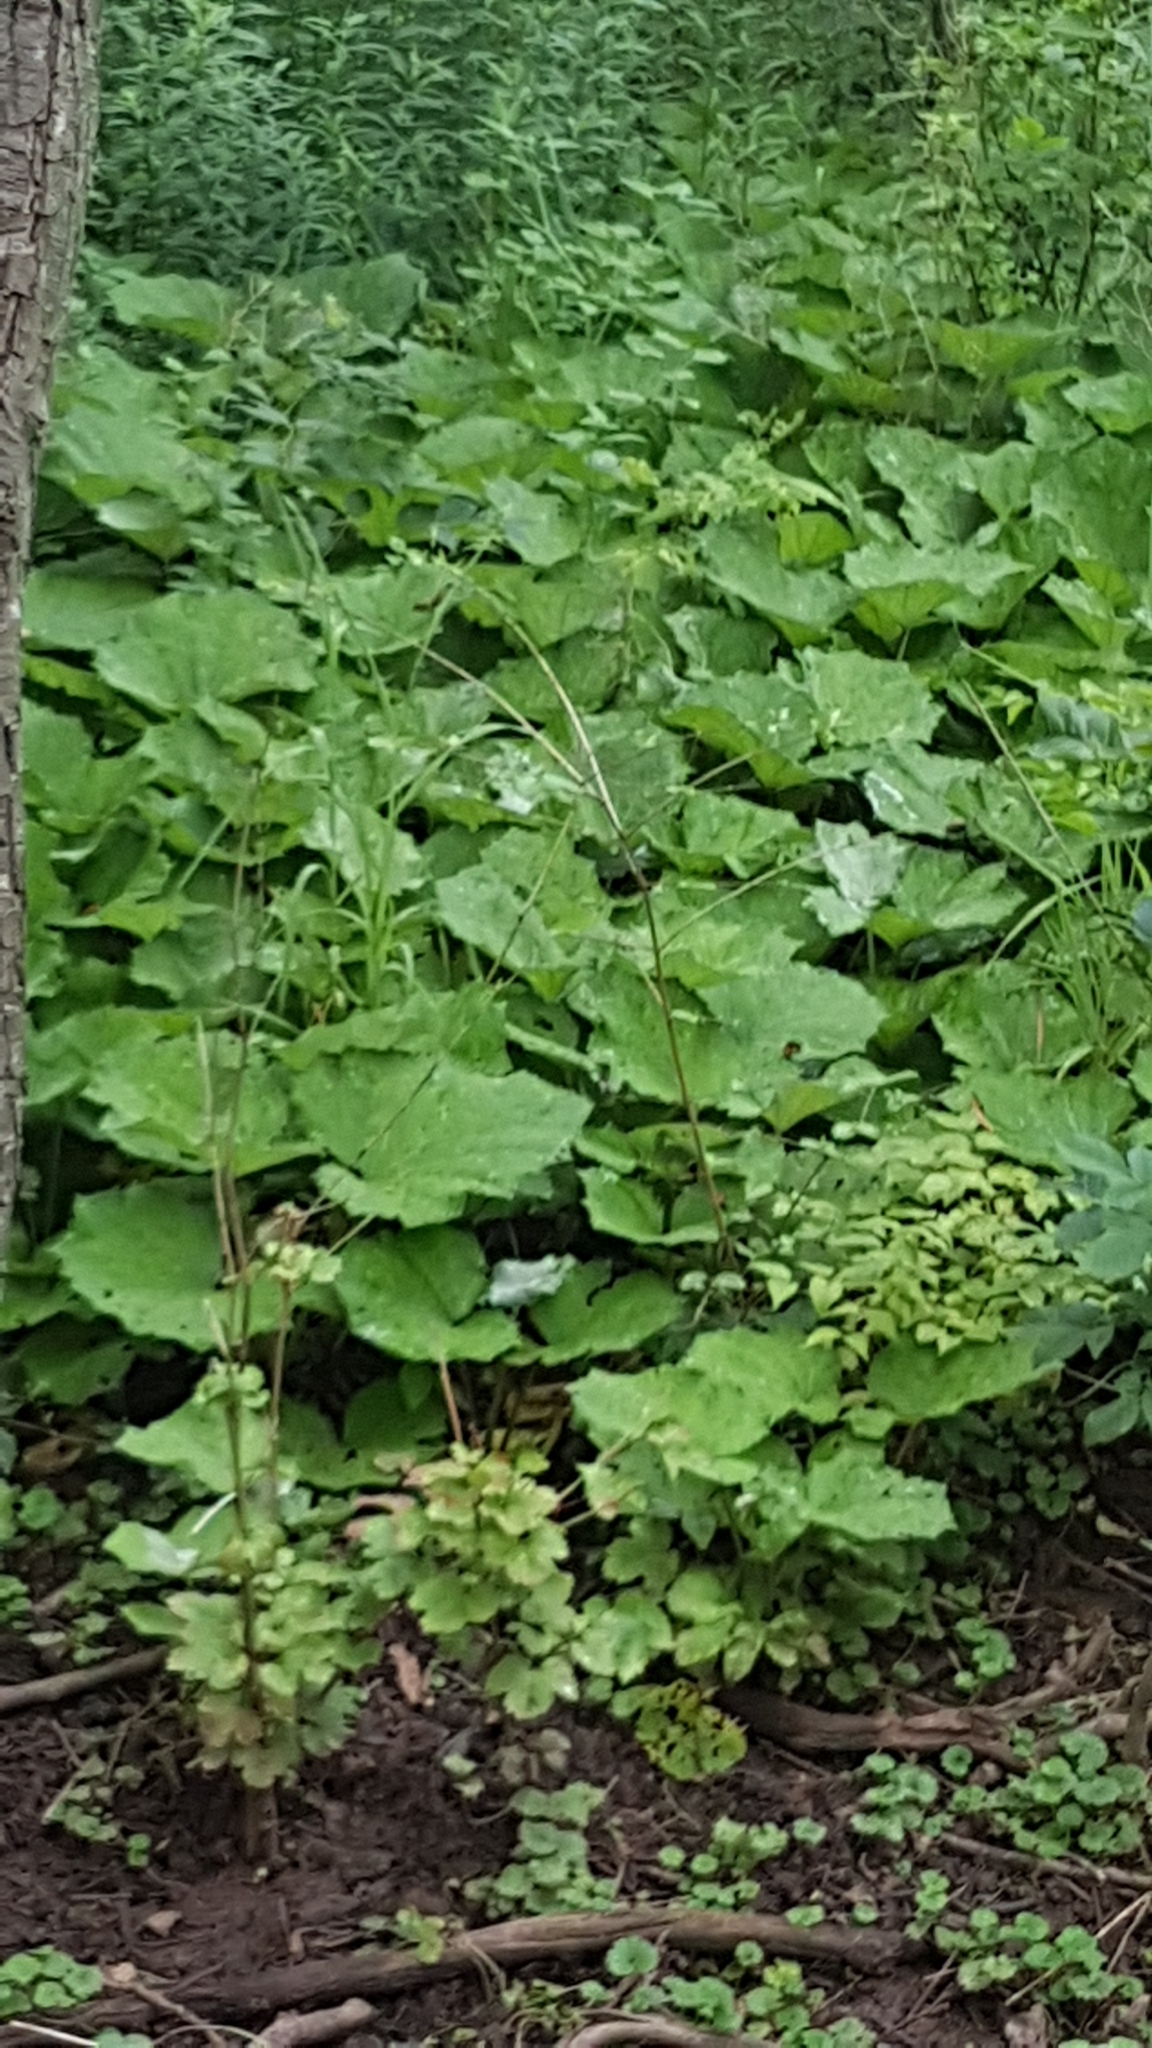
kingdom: Plantae
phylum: Tracheophyta
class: Magnoliopsida
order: Asterales
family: Asteraceae
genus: Tussilago
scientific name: Tussilago farfara
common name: Coltsfoot
